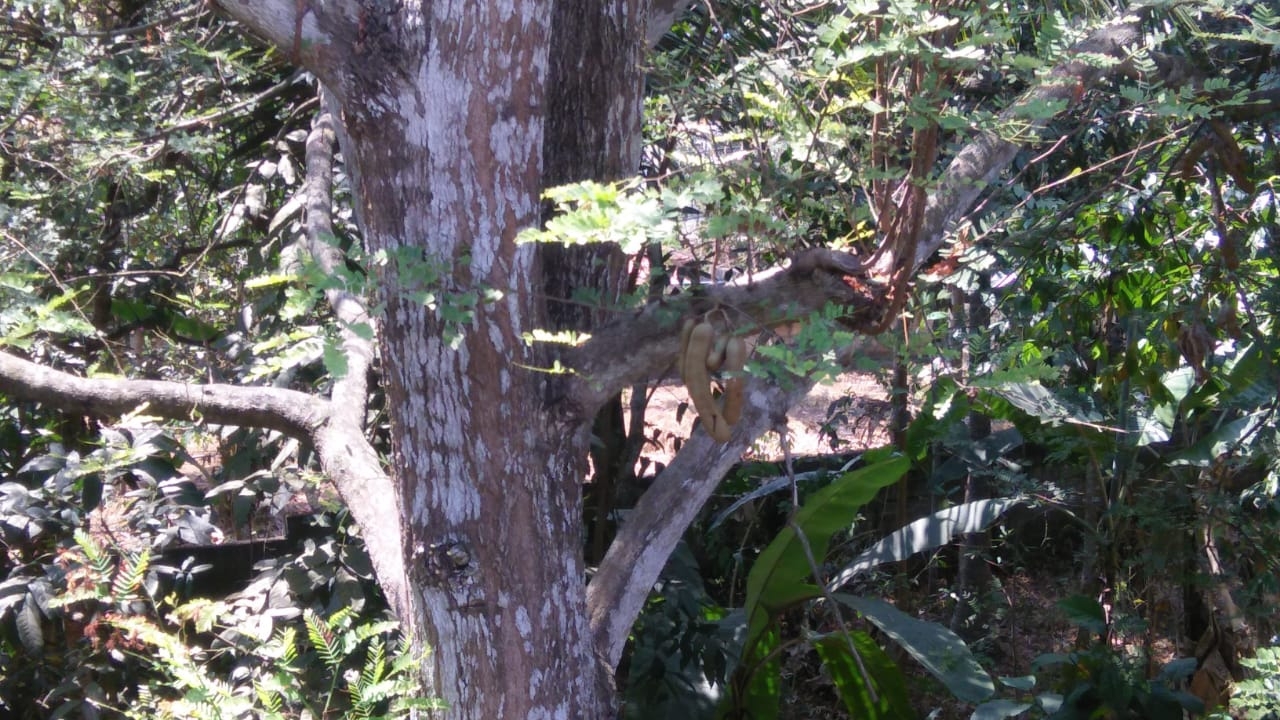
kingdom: Plantae
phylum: Tracheophyta
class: Magnoliopsida
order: Fabales
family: Fabaceae
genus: Tamarindus
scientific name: Tamarindus indica
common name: Tamarind
